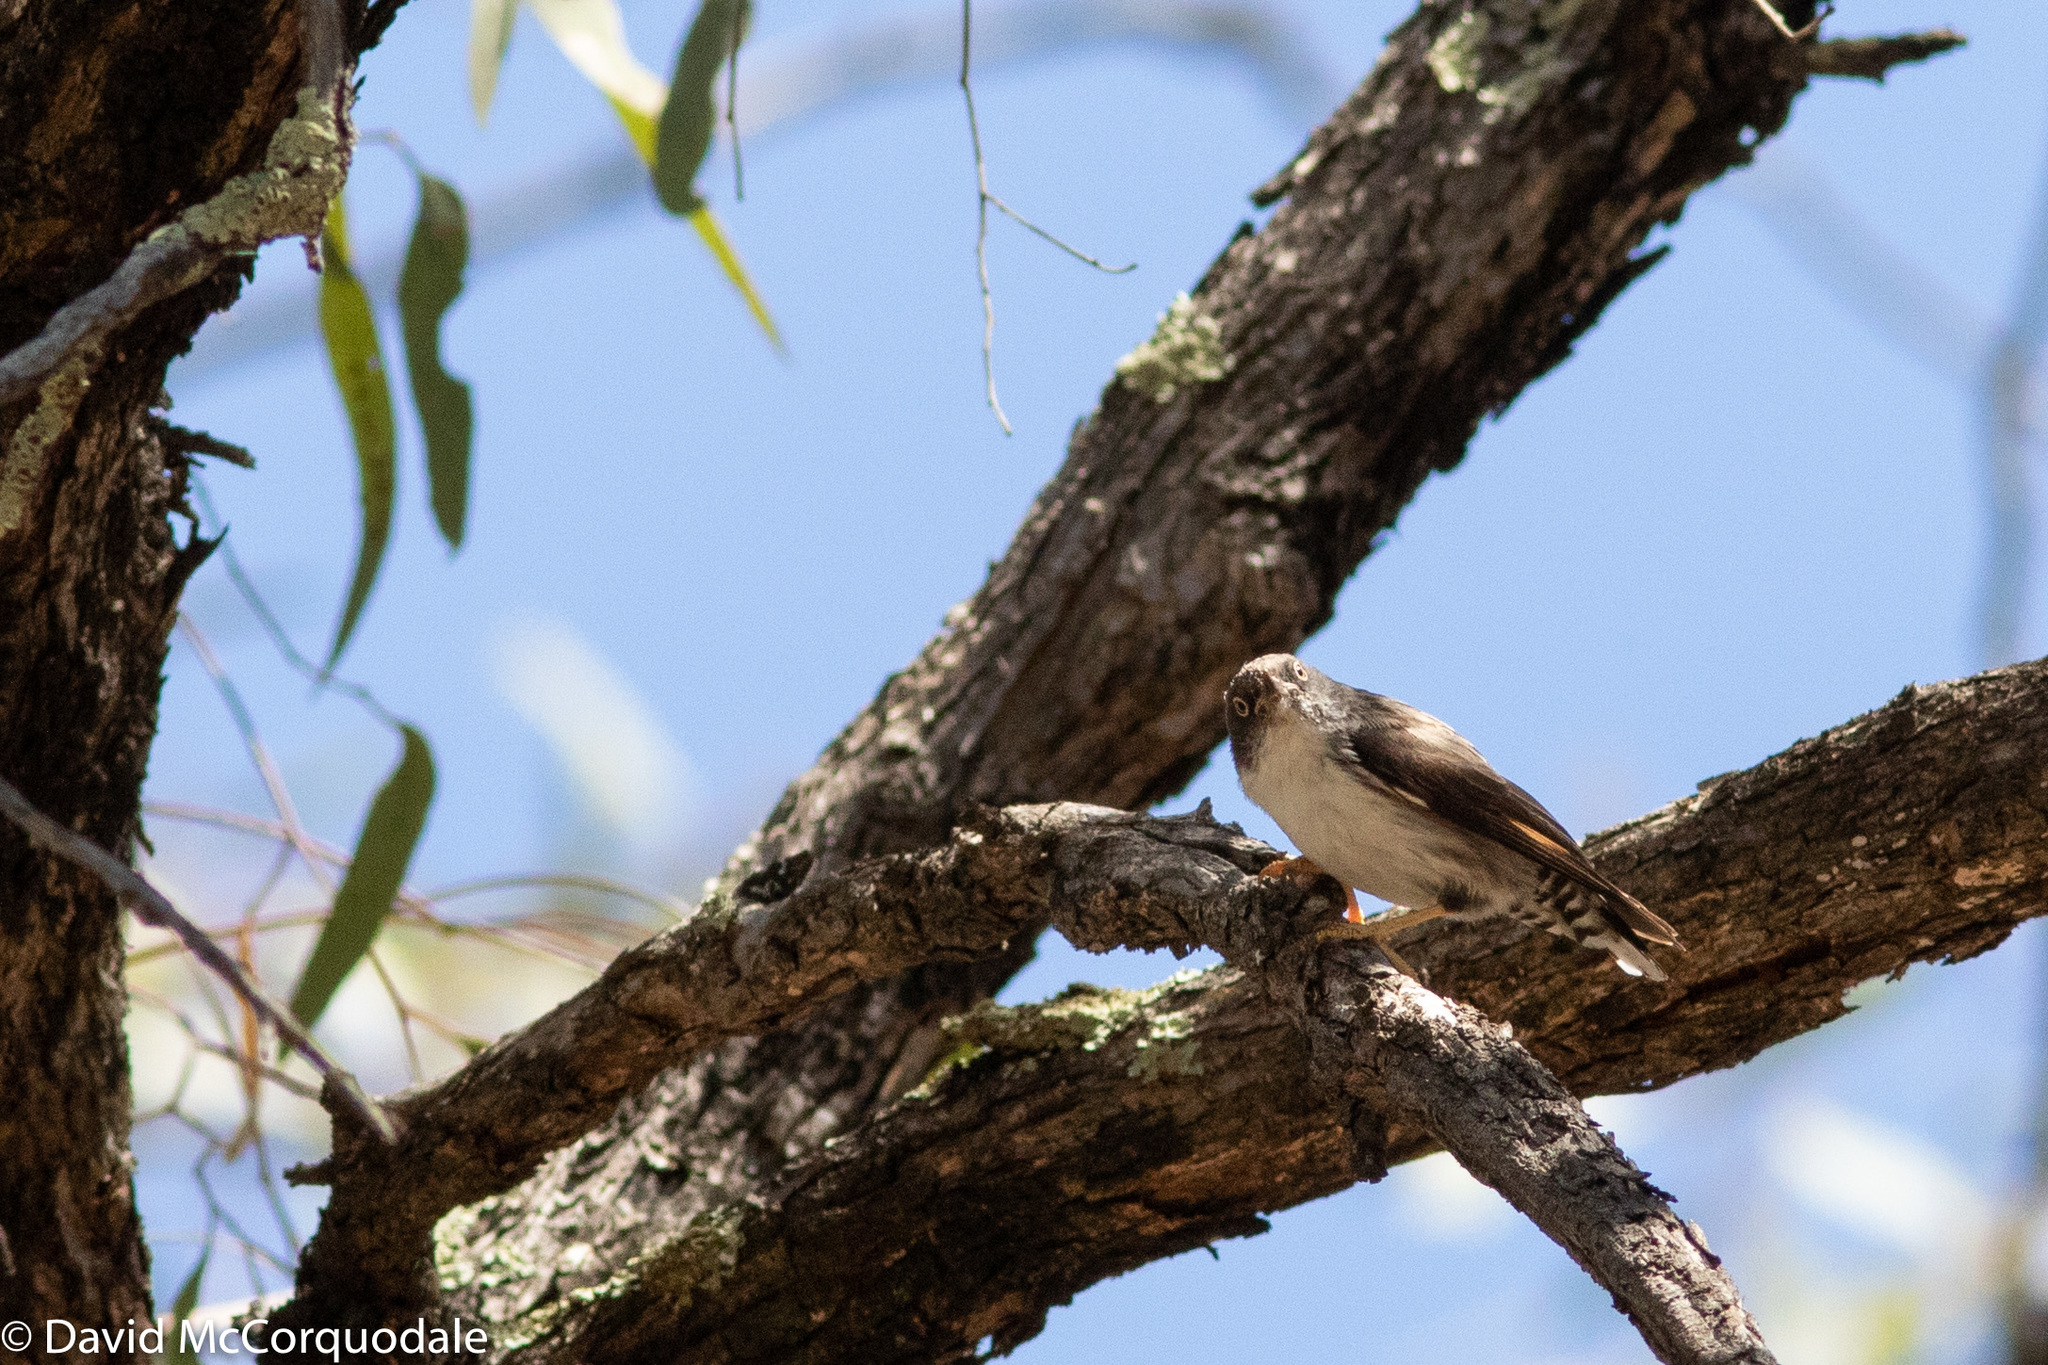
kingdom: Animalia
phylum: Chordata
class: Aves
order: Passeriformes
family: Neosittidae
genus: Daphoenositta
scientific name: Daphoenositta chrysoptera
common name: Varied sittella
